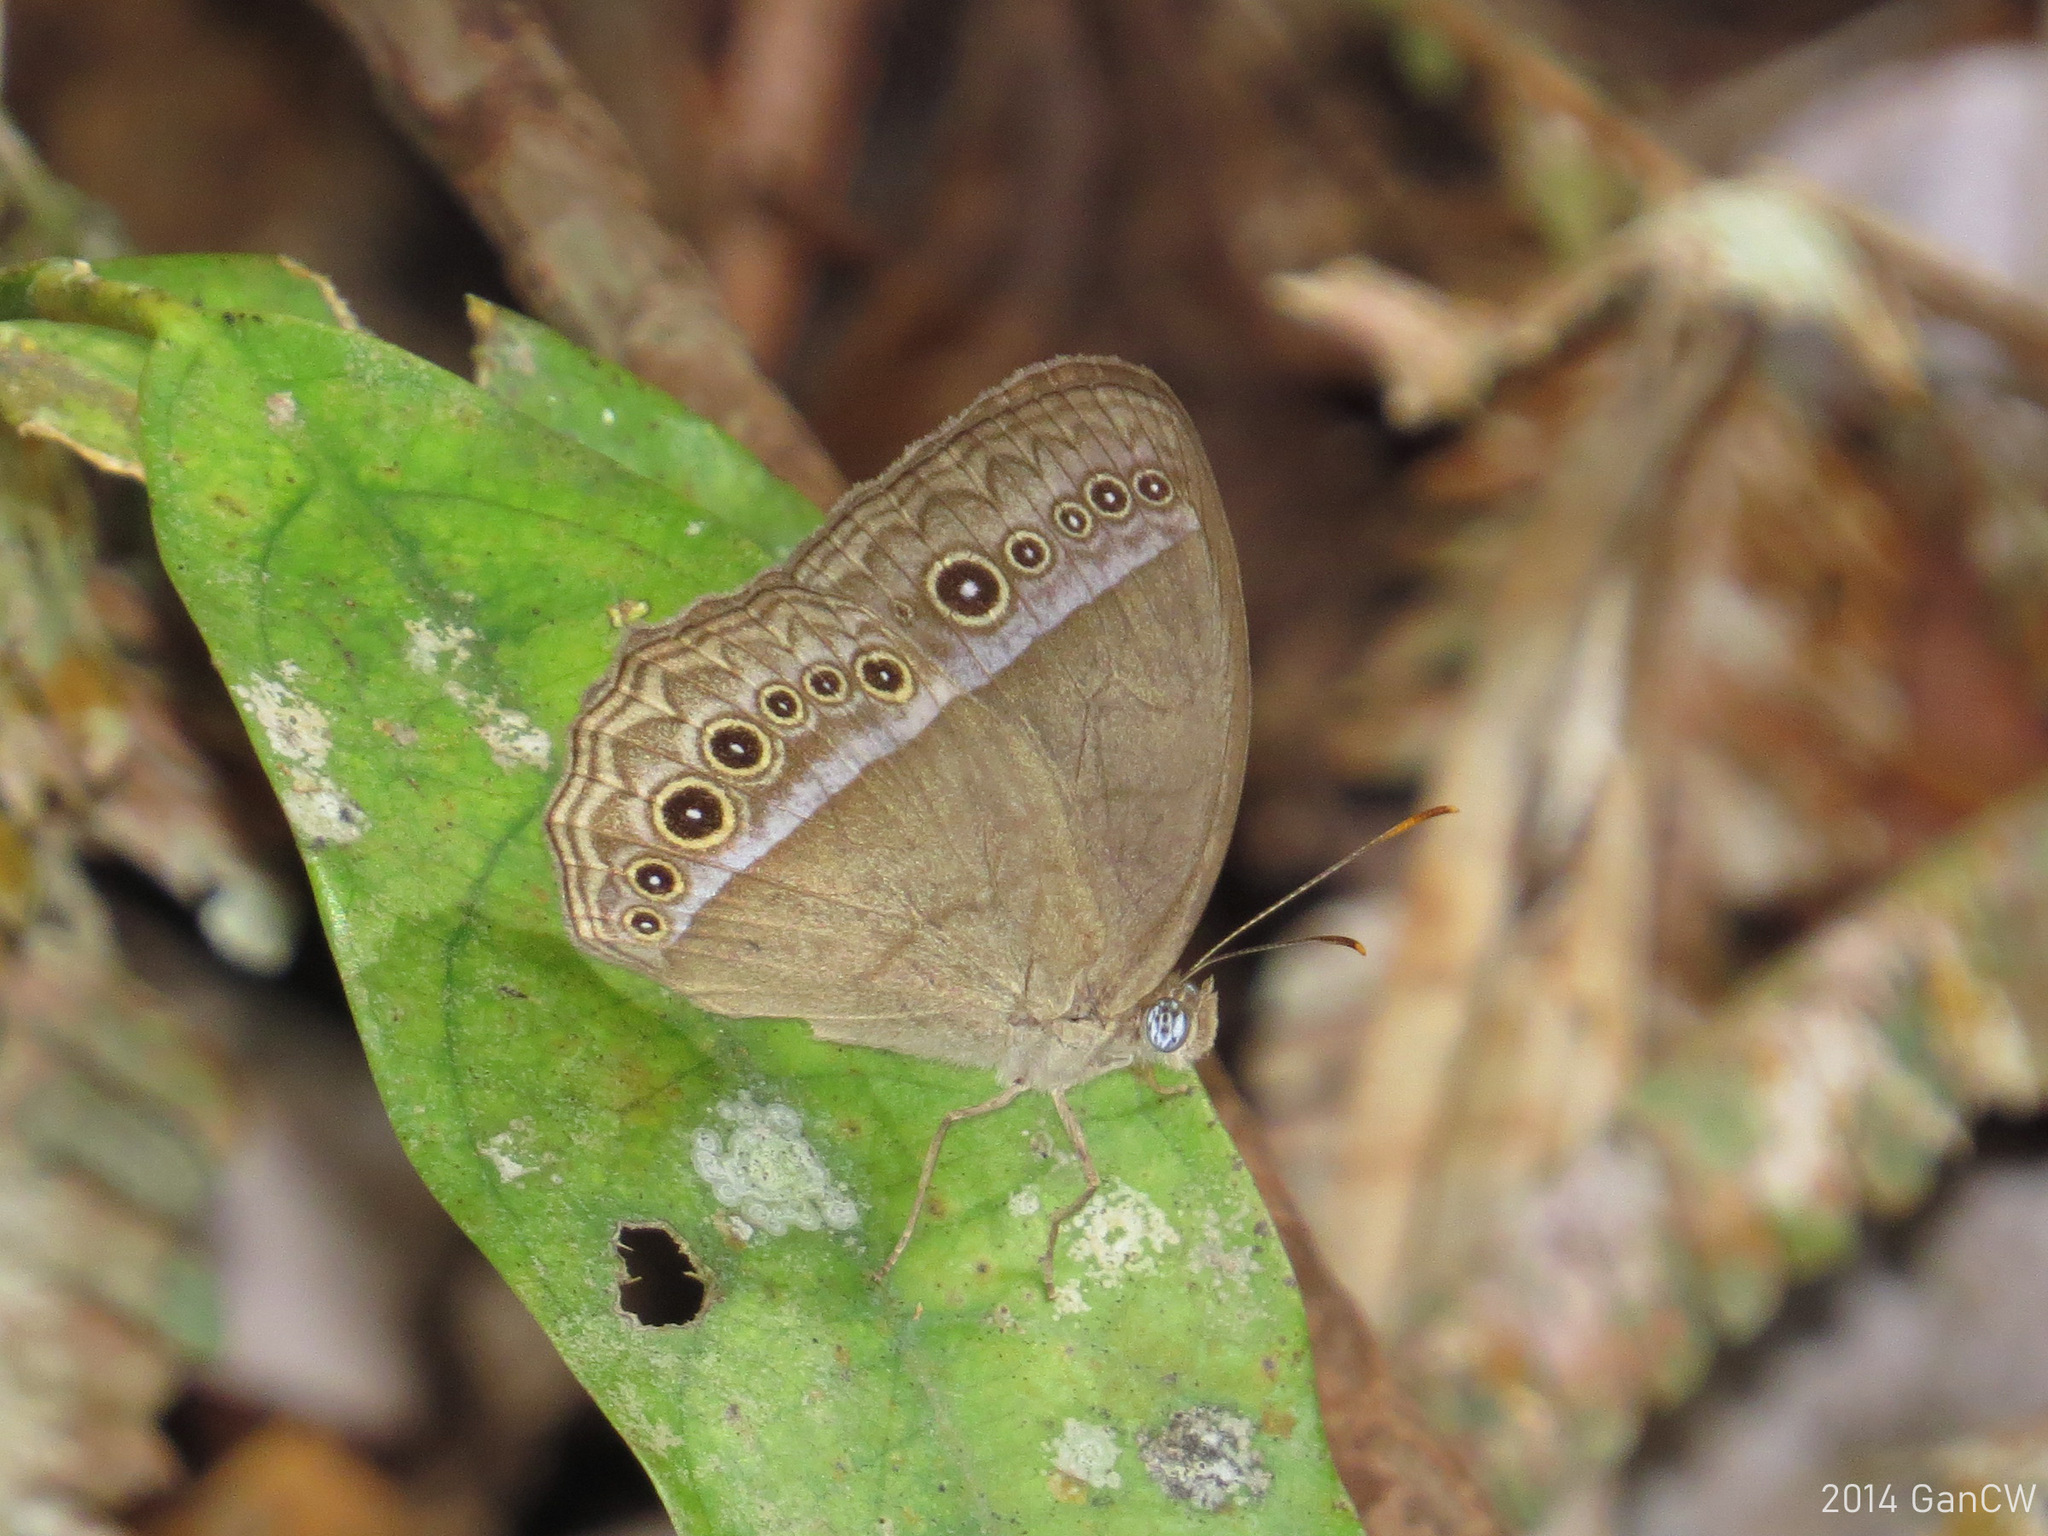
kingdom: Animalia
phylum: Arthropoda
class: Insecta
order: Lepidoptera
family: Nymphalidae
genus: Mycalesis
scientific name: Mycalesis orseis
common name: Purple bushbrown
